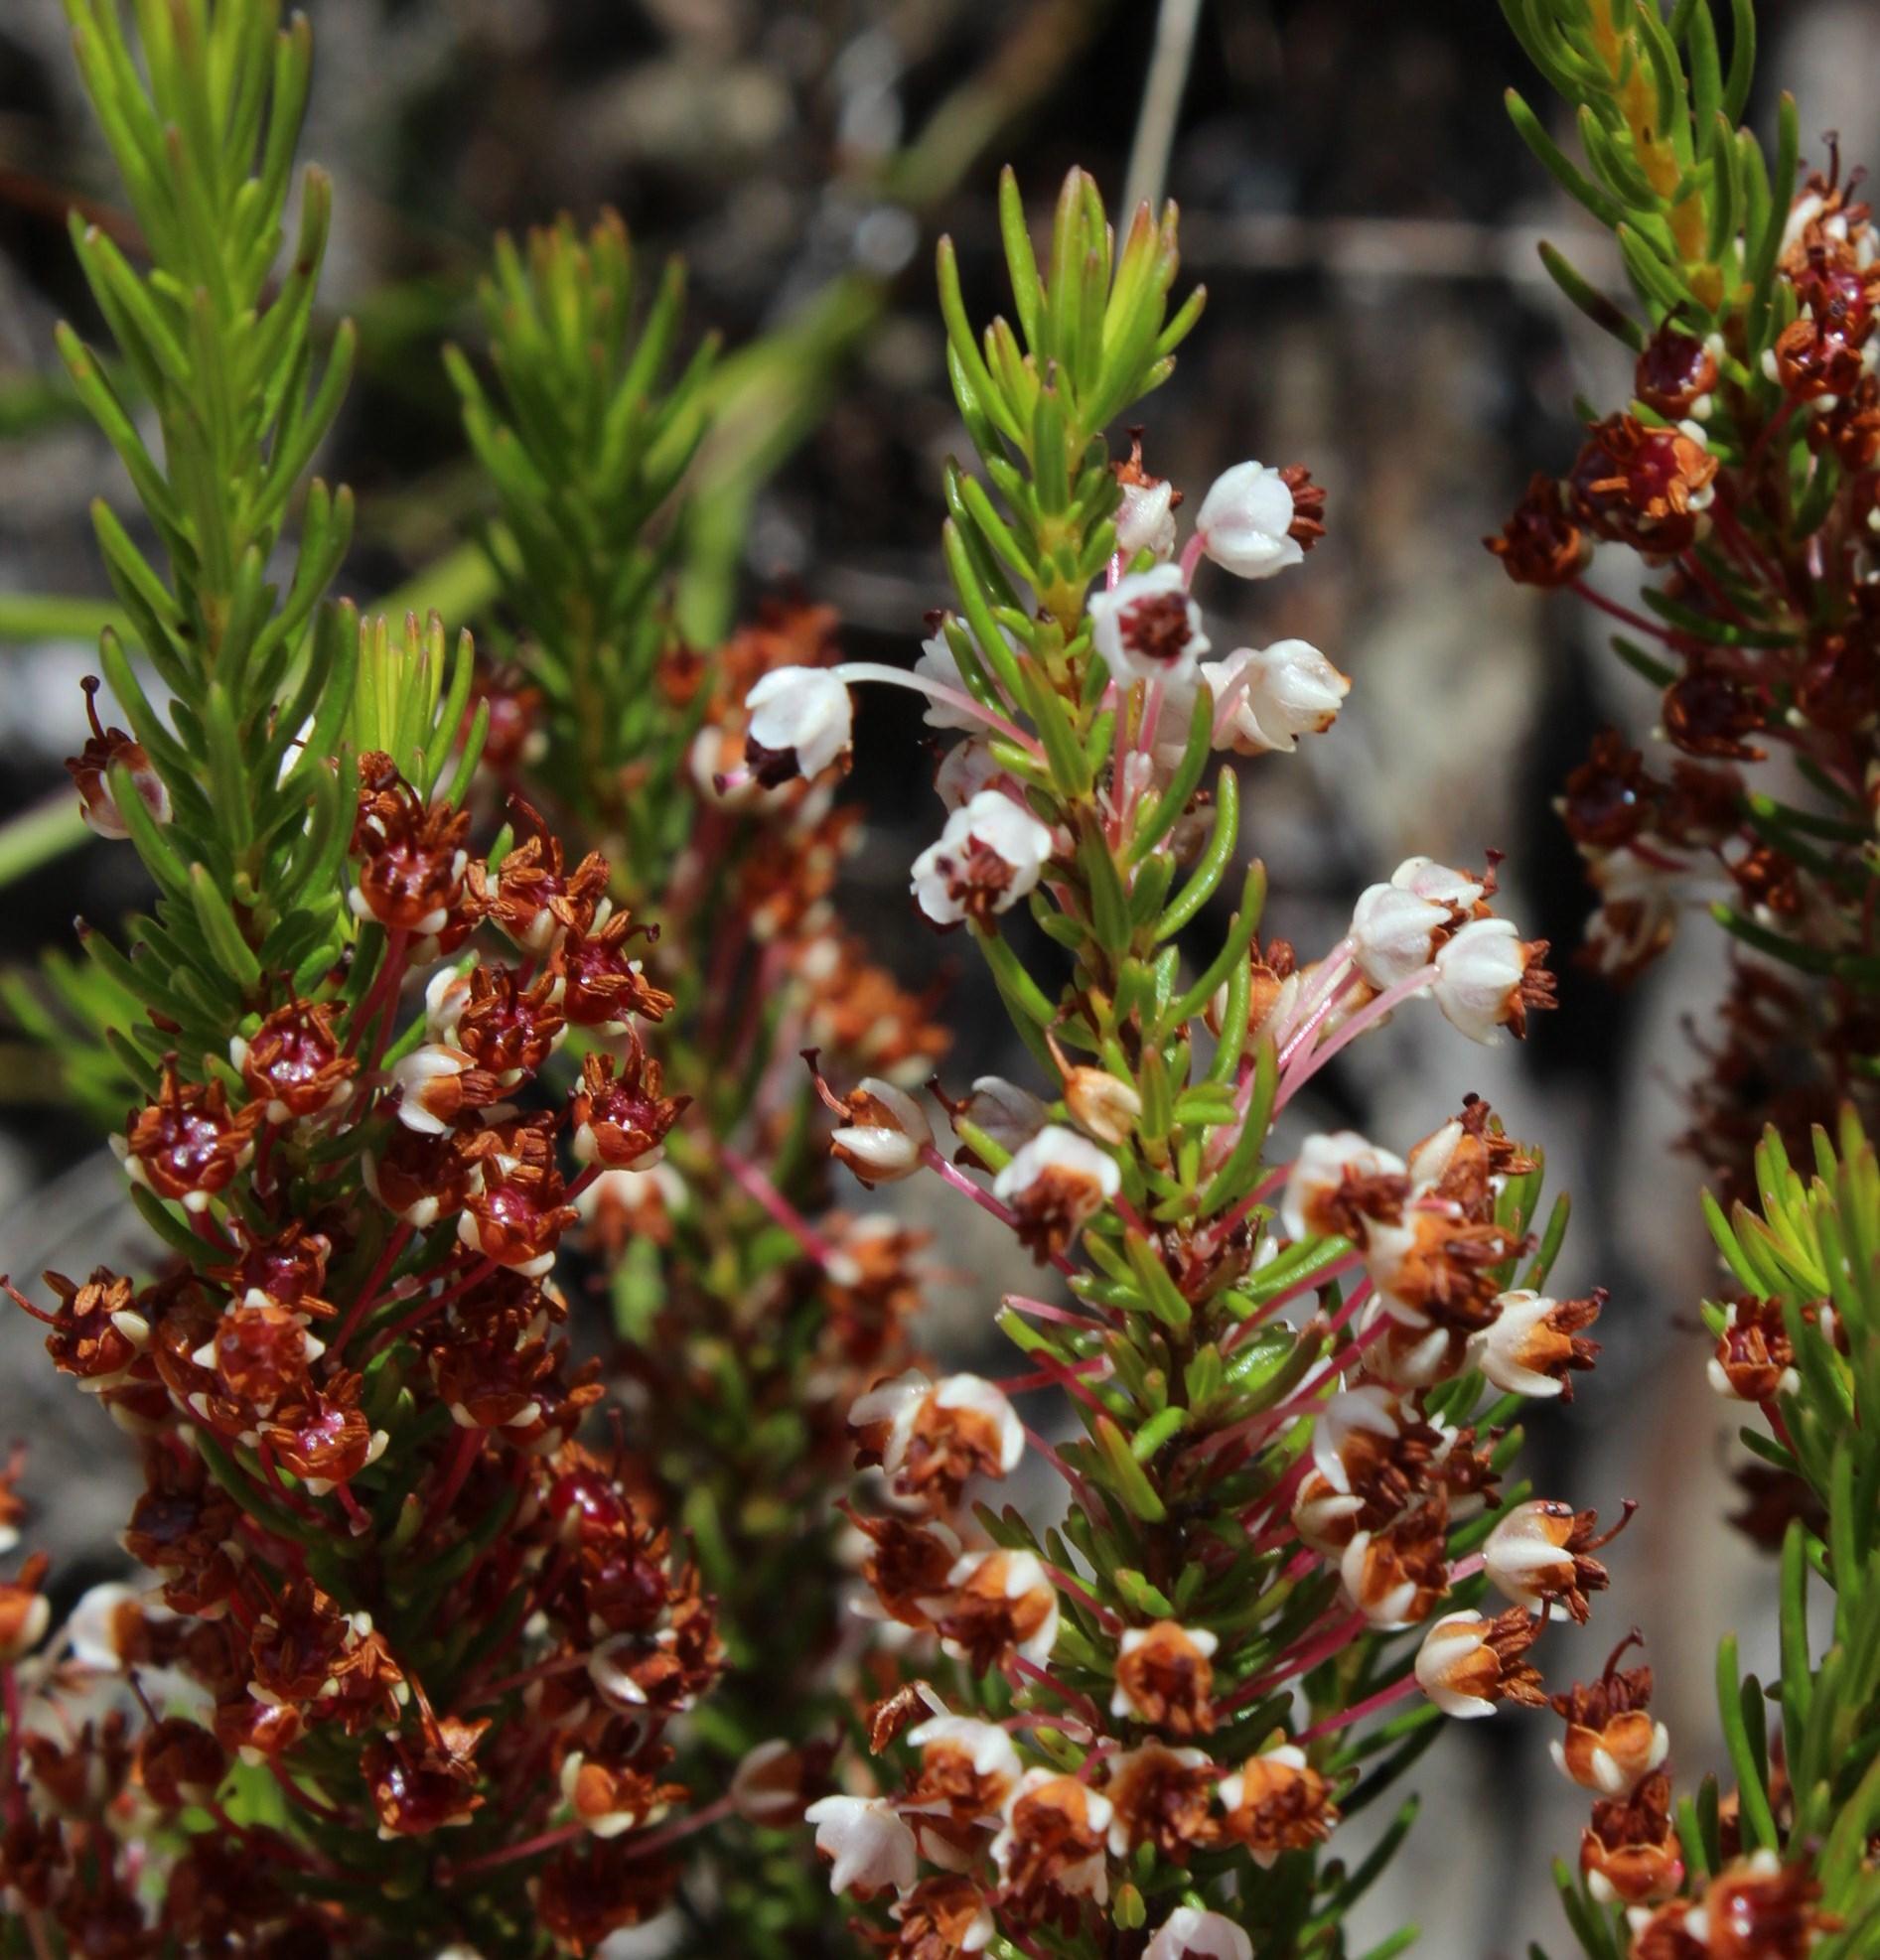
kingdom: Plantae
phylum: Tracheophyta
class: Magnoliopsida
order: Ericales
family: Ericaceae
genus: Erica
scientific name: Erica rubiginosa
